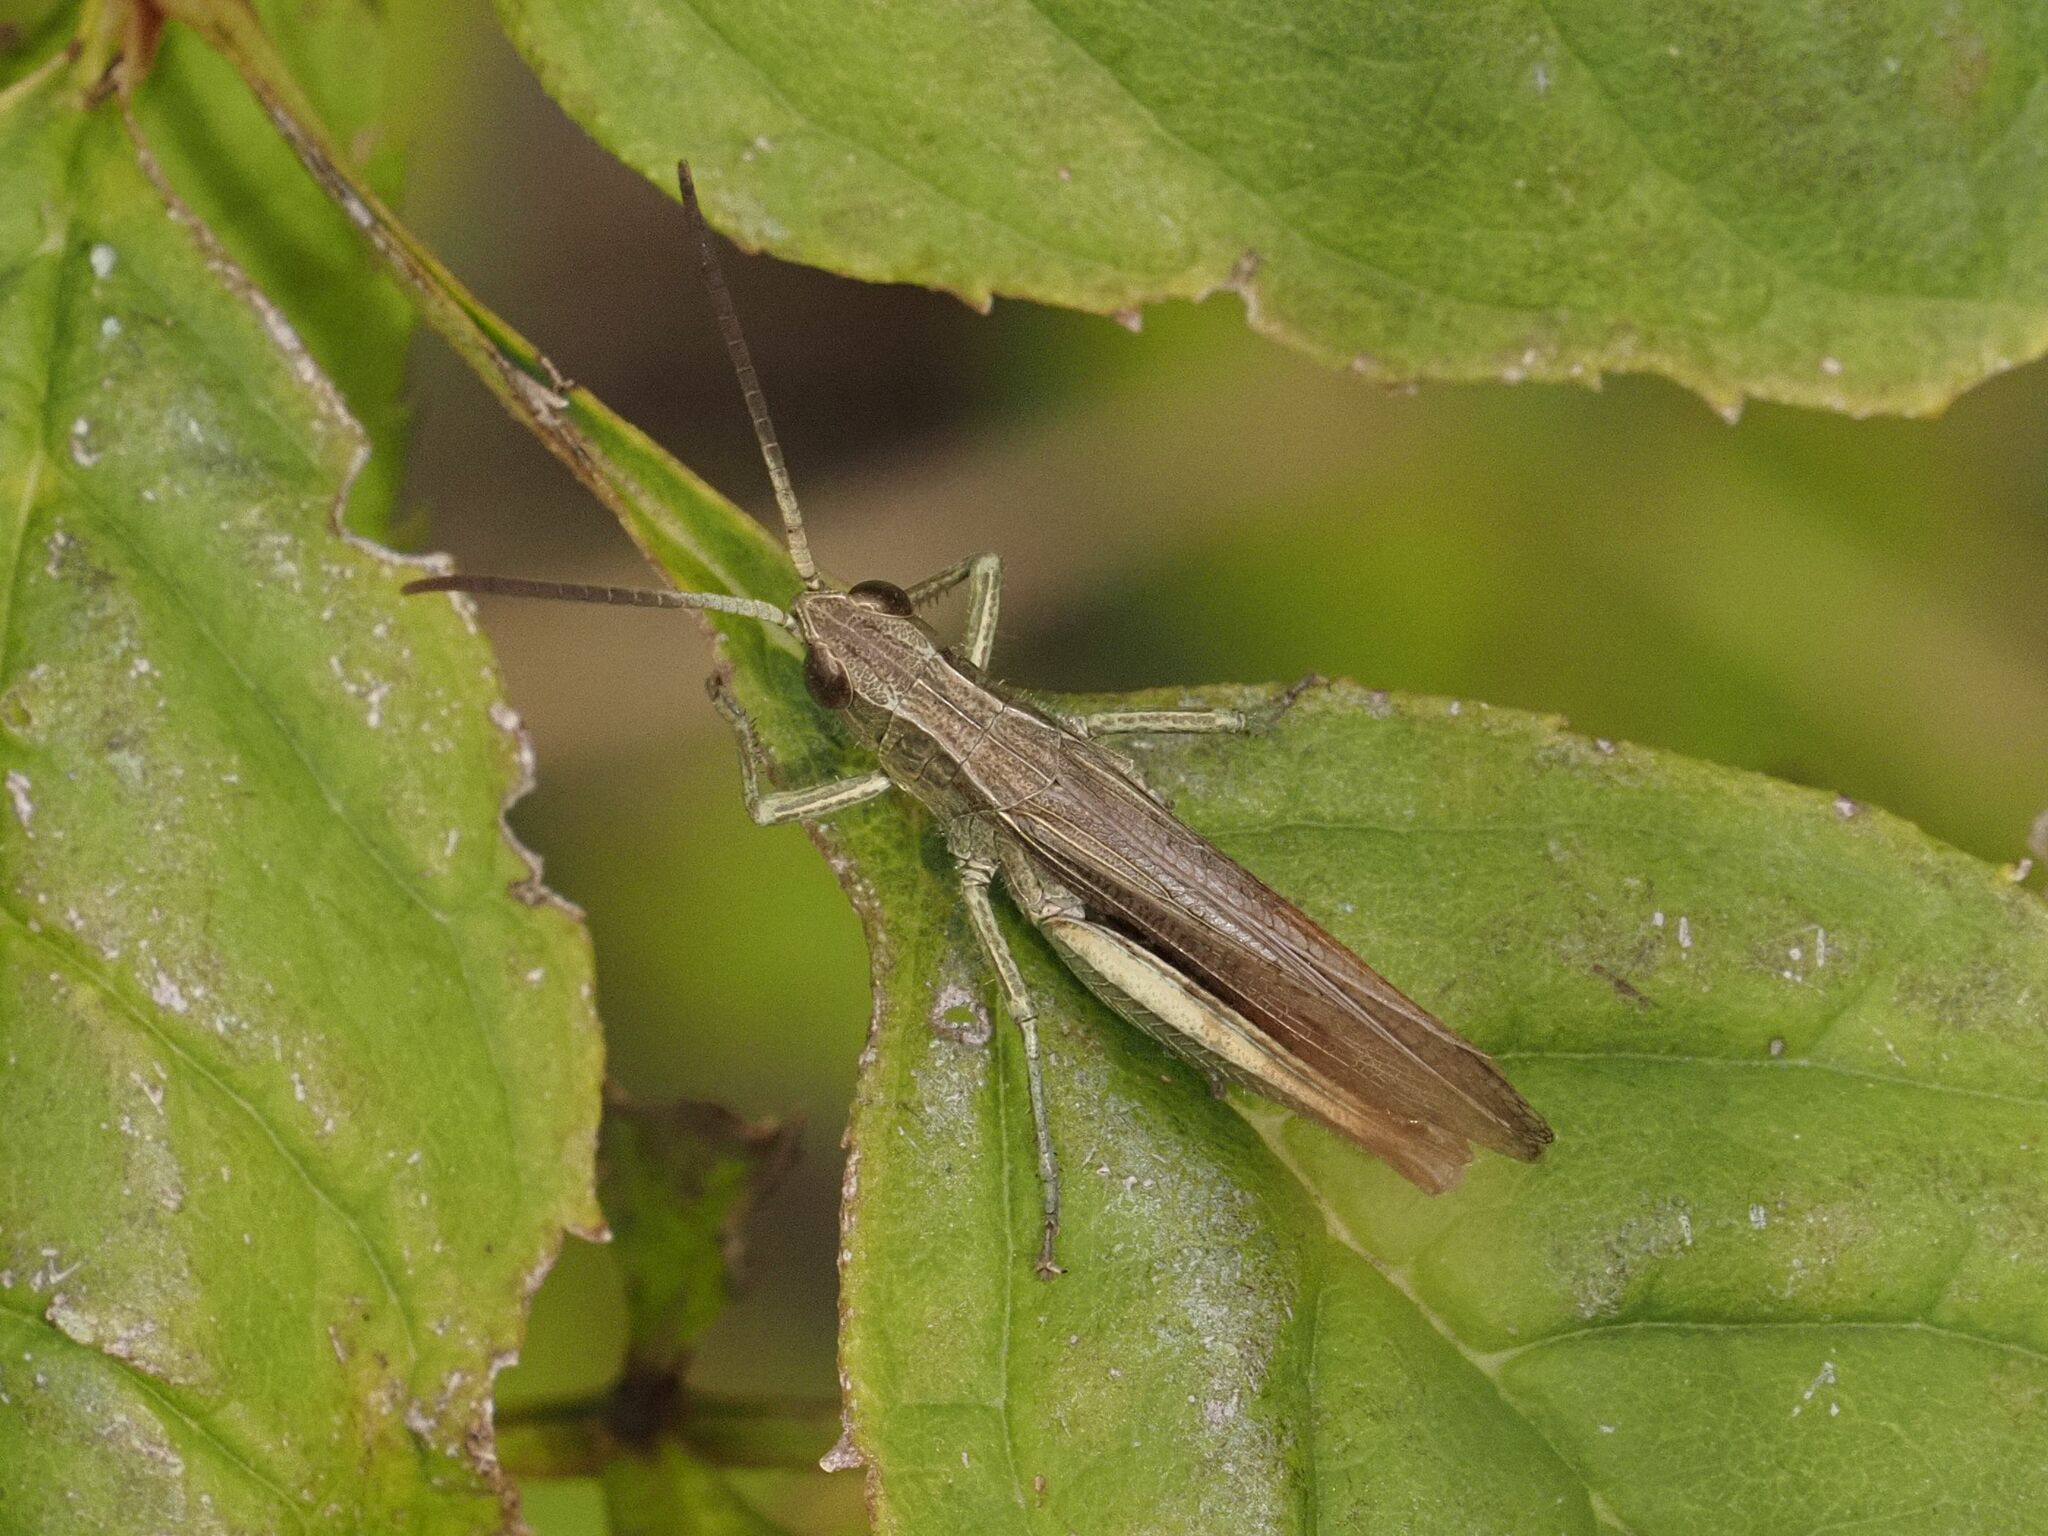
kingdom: Animalia
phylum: Arthropoda
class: Insecta
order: Orthoptera
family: Acrididae
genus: Chorthippus
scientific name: Chorthippus dorsatus
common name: Steppe grasshopper
